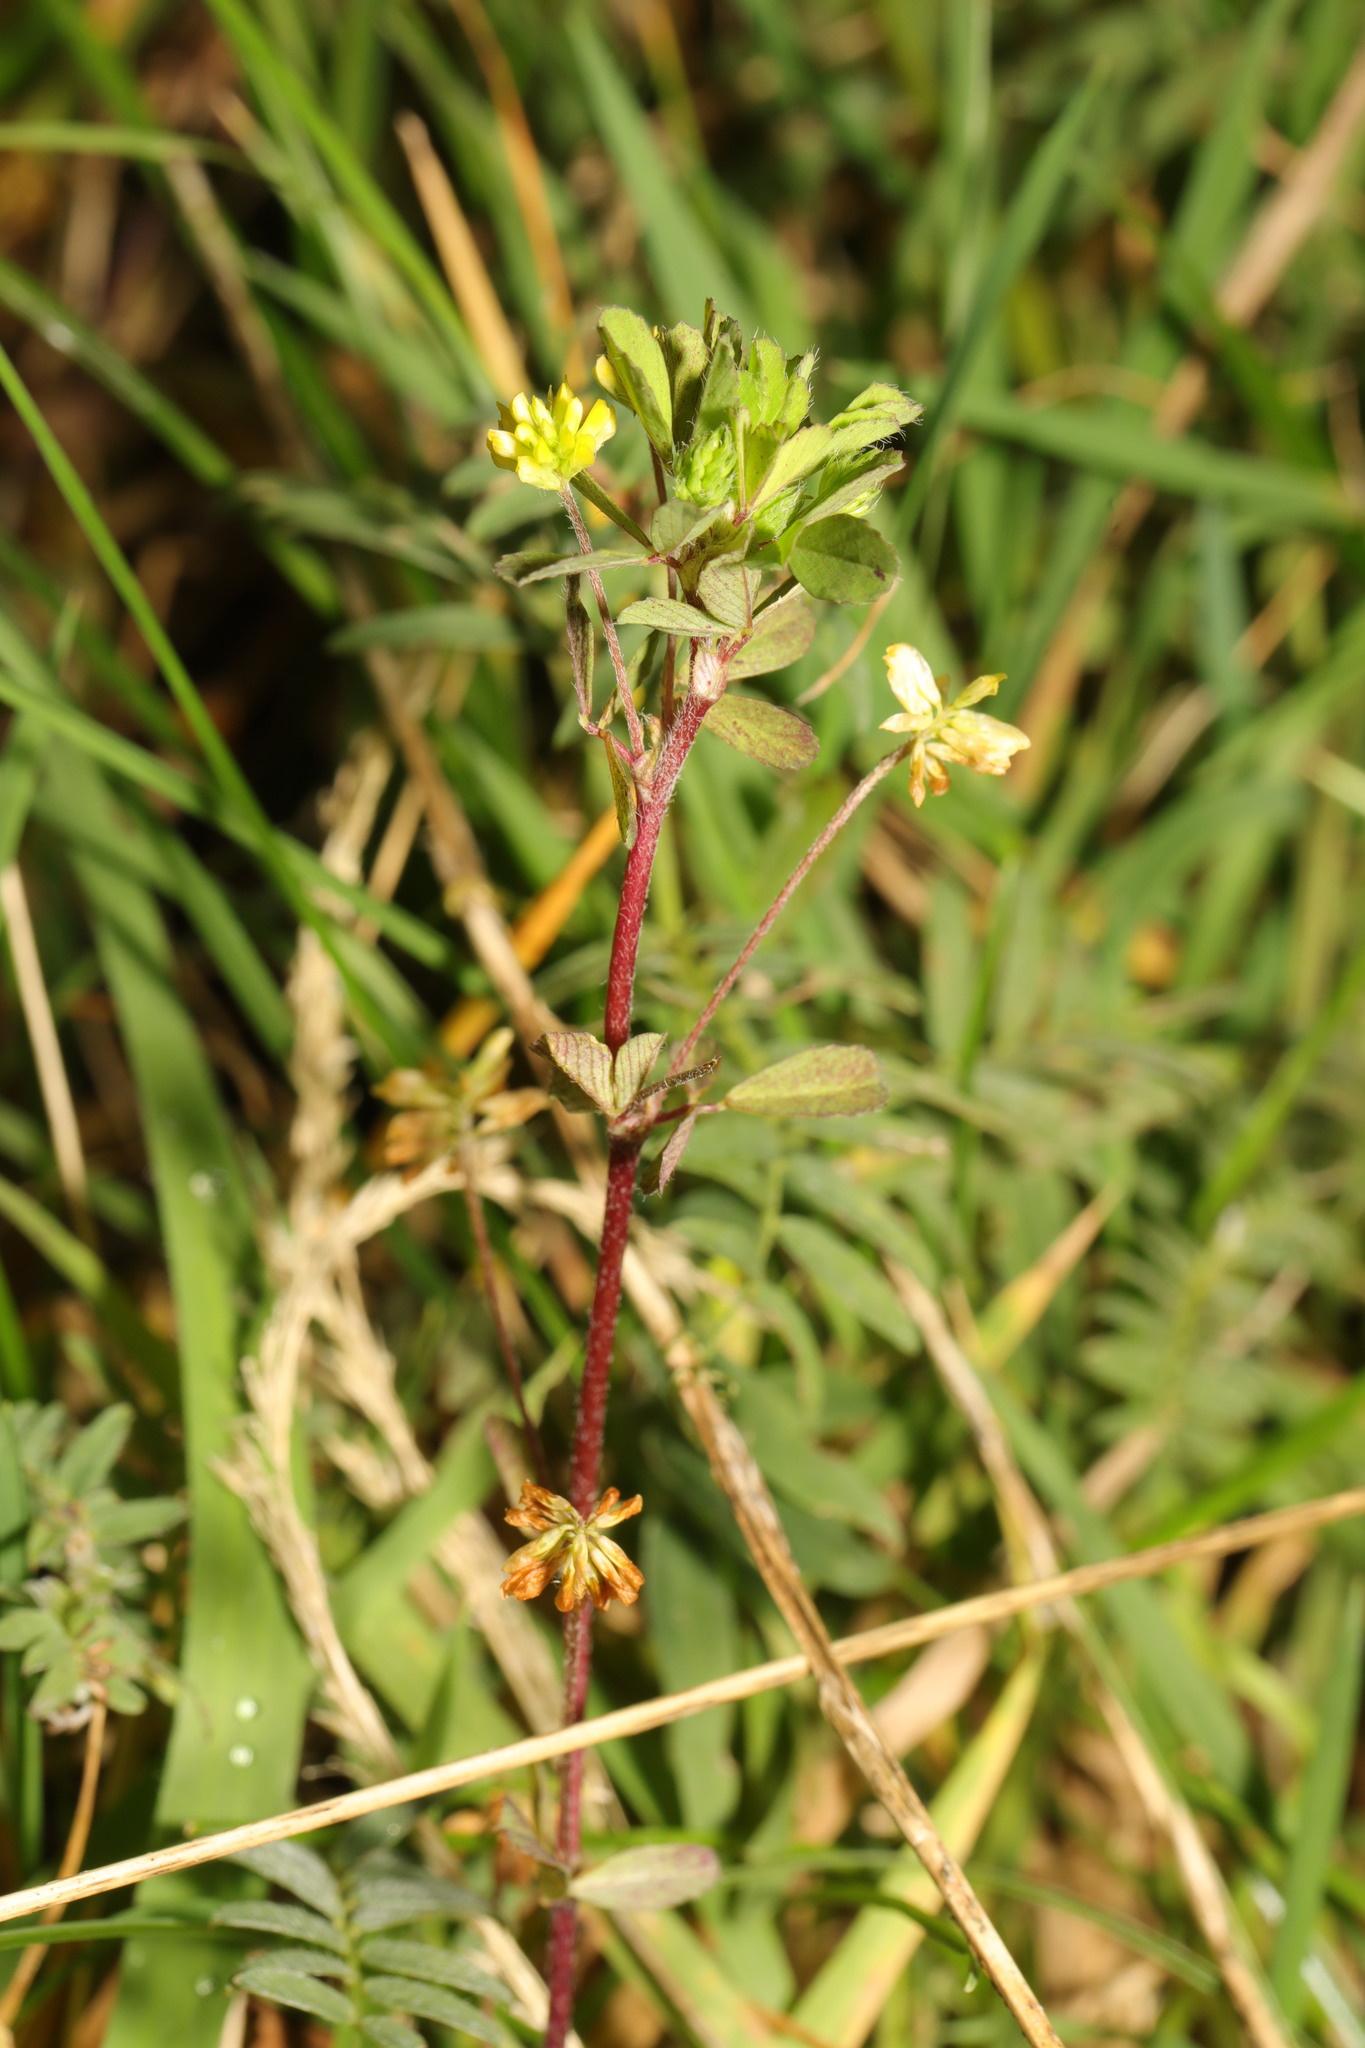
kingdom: Plantae
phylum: Tracheophyta
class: Magnoliopsida
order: Fabales
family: Fabaceae
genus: Trifolium
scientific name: Trifolium dubium
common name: Suckling clover
